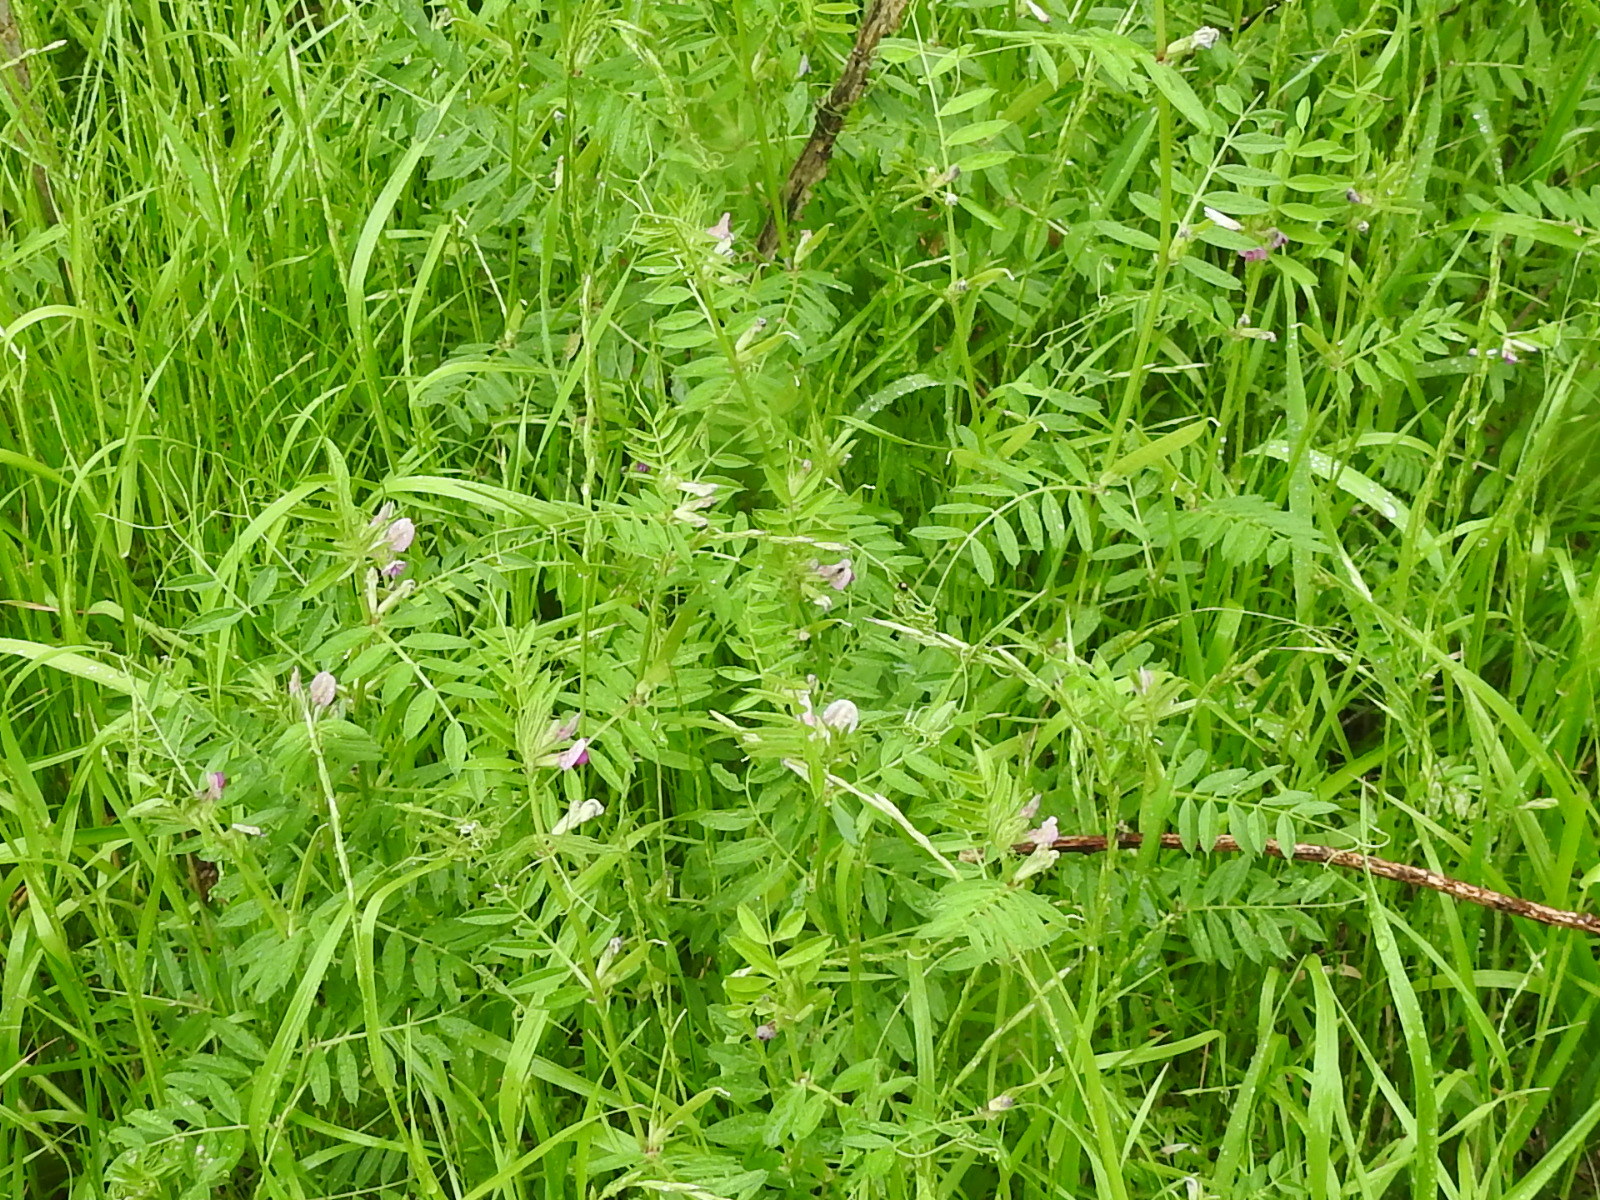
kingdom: Plantae
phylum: Tracheophyta
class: Magnoliopsida
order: Fabales
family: Fabaceae
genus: Vicia
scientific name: Vicia sativa
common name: Garden vetch
